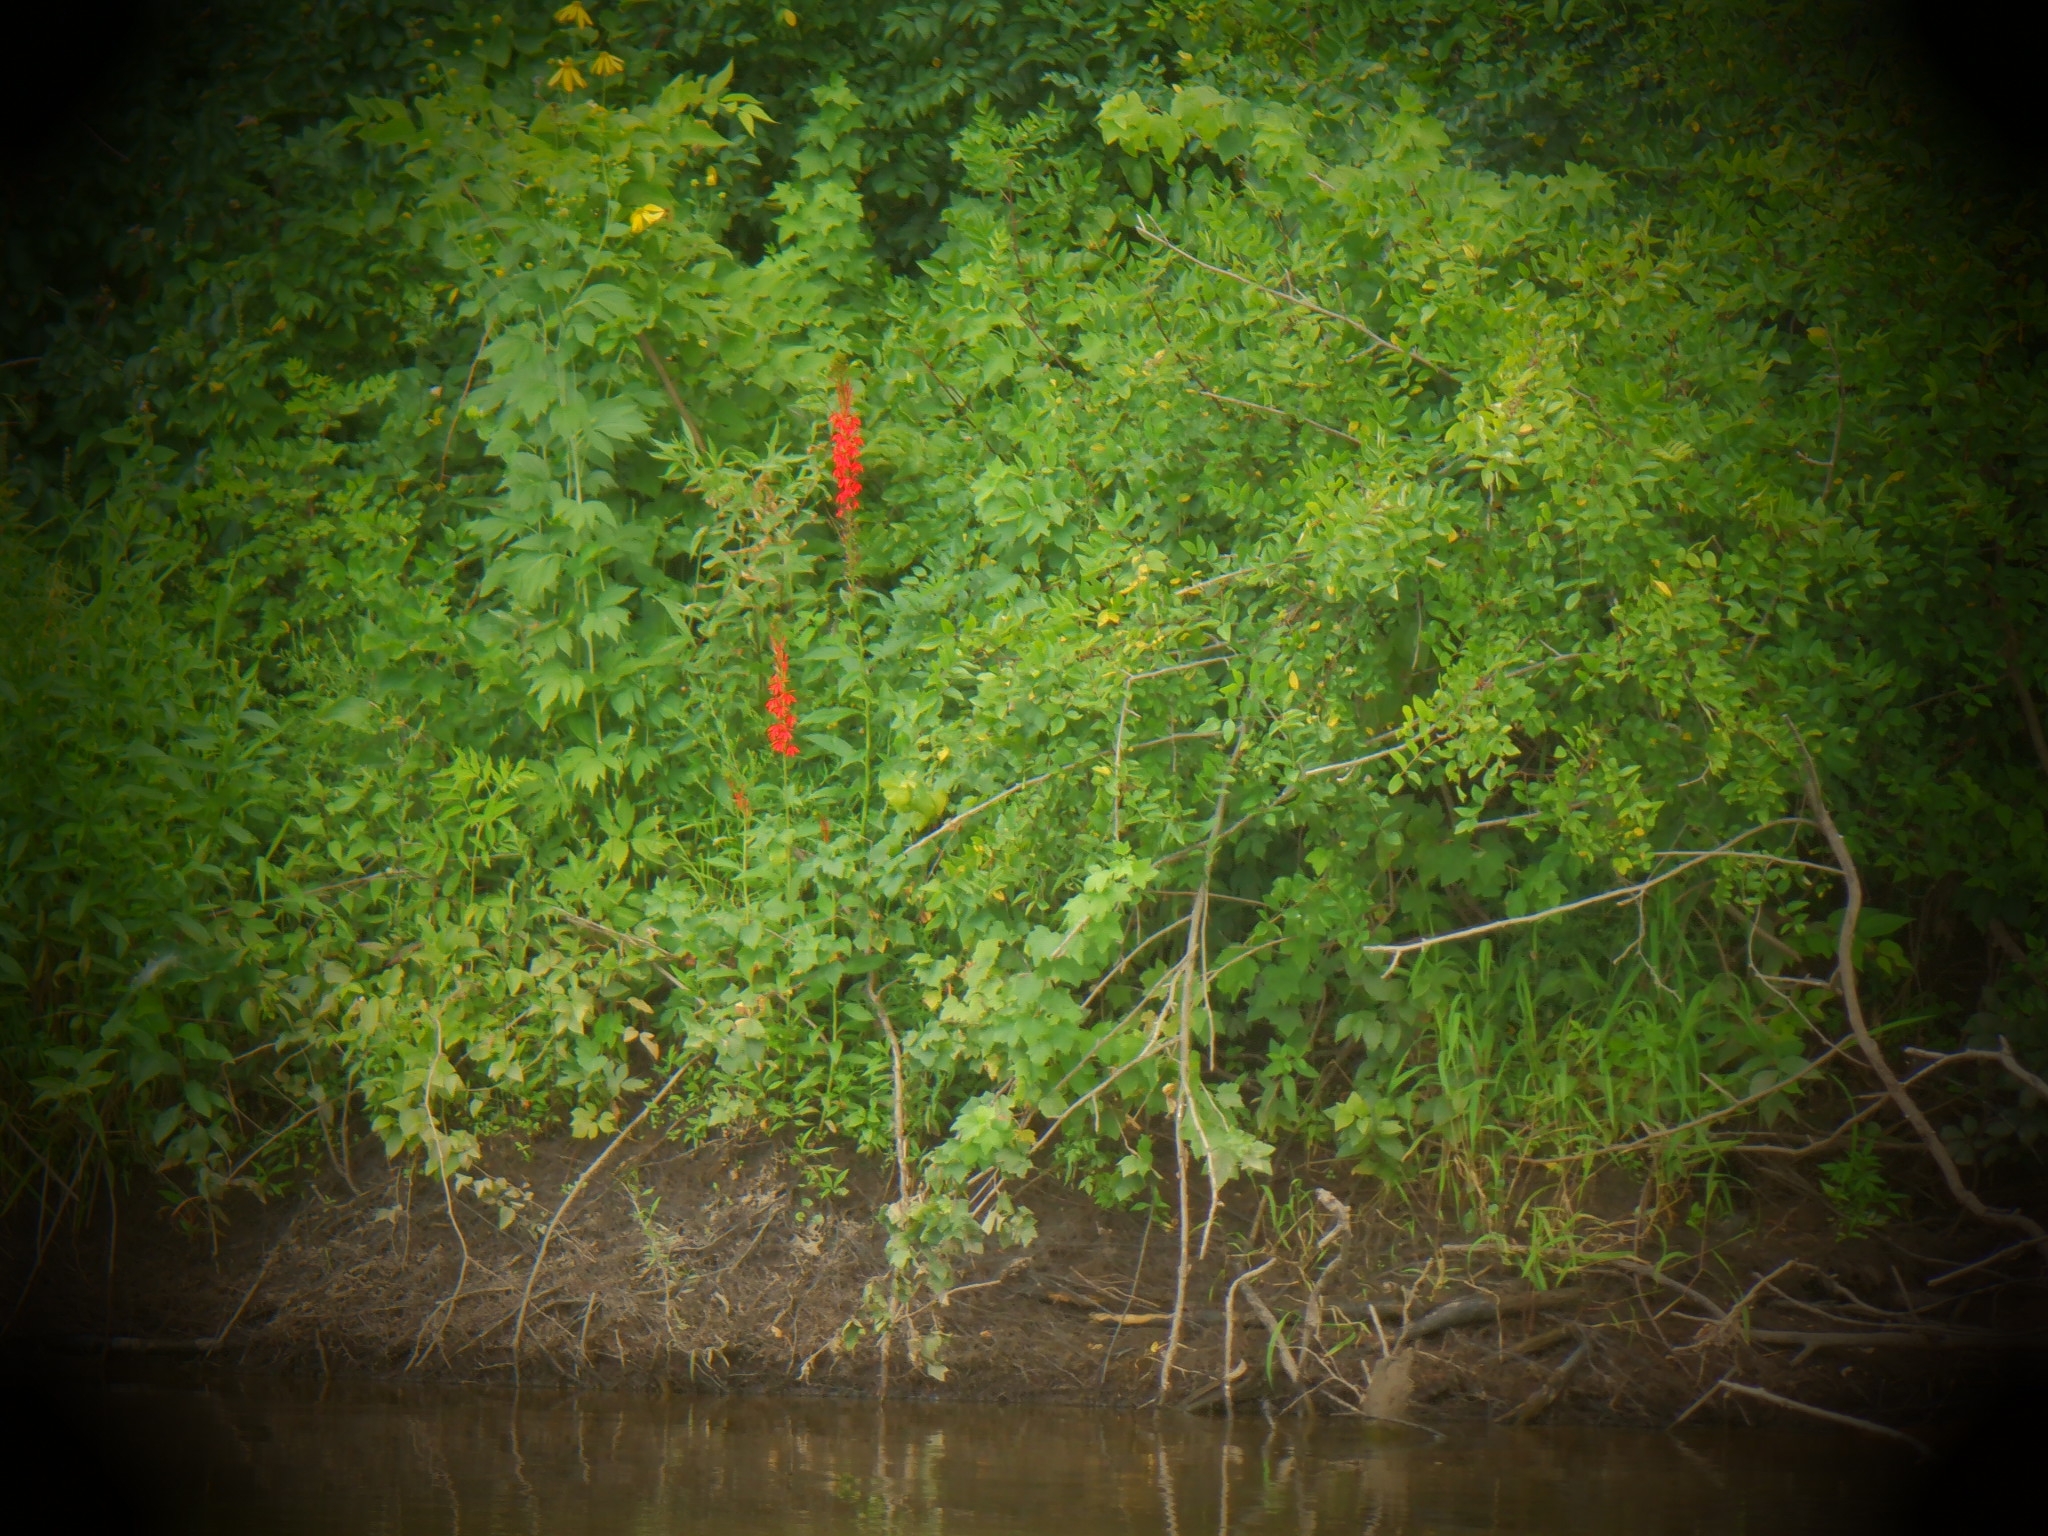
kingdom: Plantae
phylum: Tracheophyta
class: Magnoliopsida
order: Asterales
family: Campanulaceae
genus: Lobelia
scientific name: Lobelia cardinalis
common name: Cardinal flower
